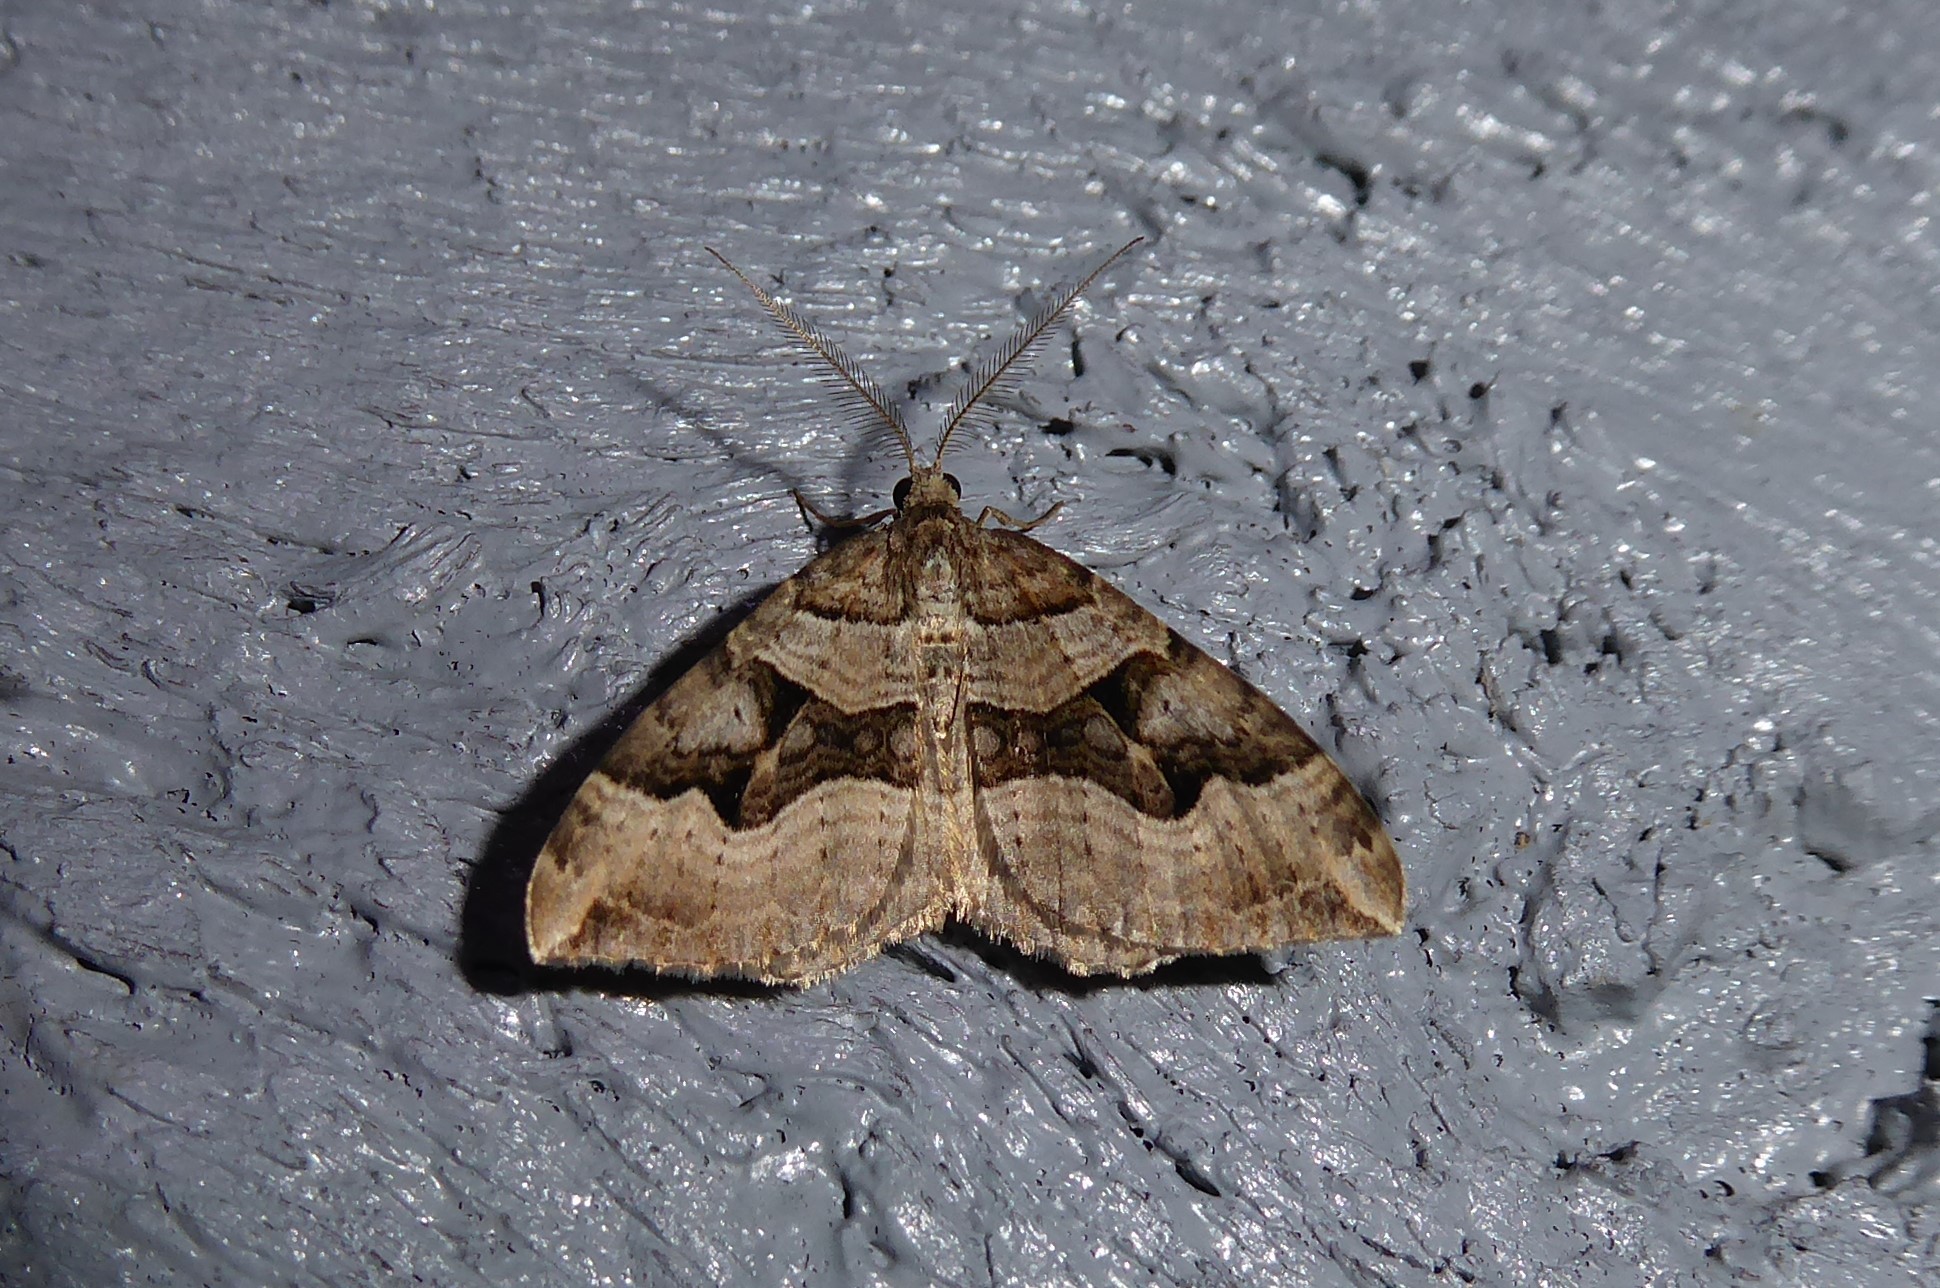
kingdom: Animalia
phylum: Arthropoda
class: Insecta
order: Lepidoptera
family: Geometridae
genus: Xanthorhoe
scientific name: Xanthorhoe semifissata
